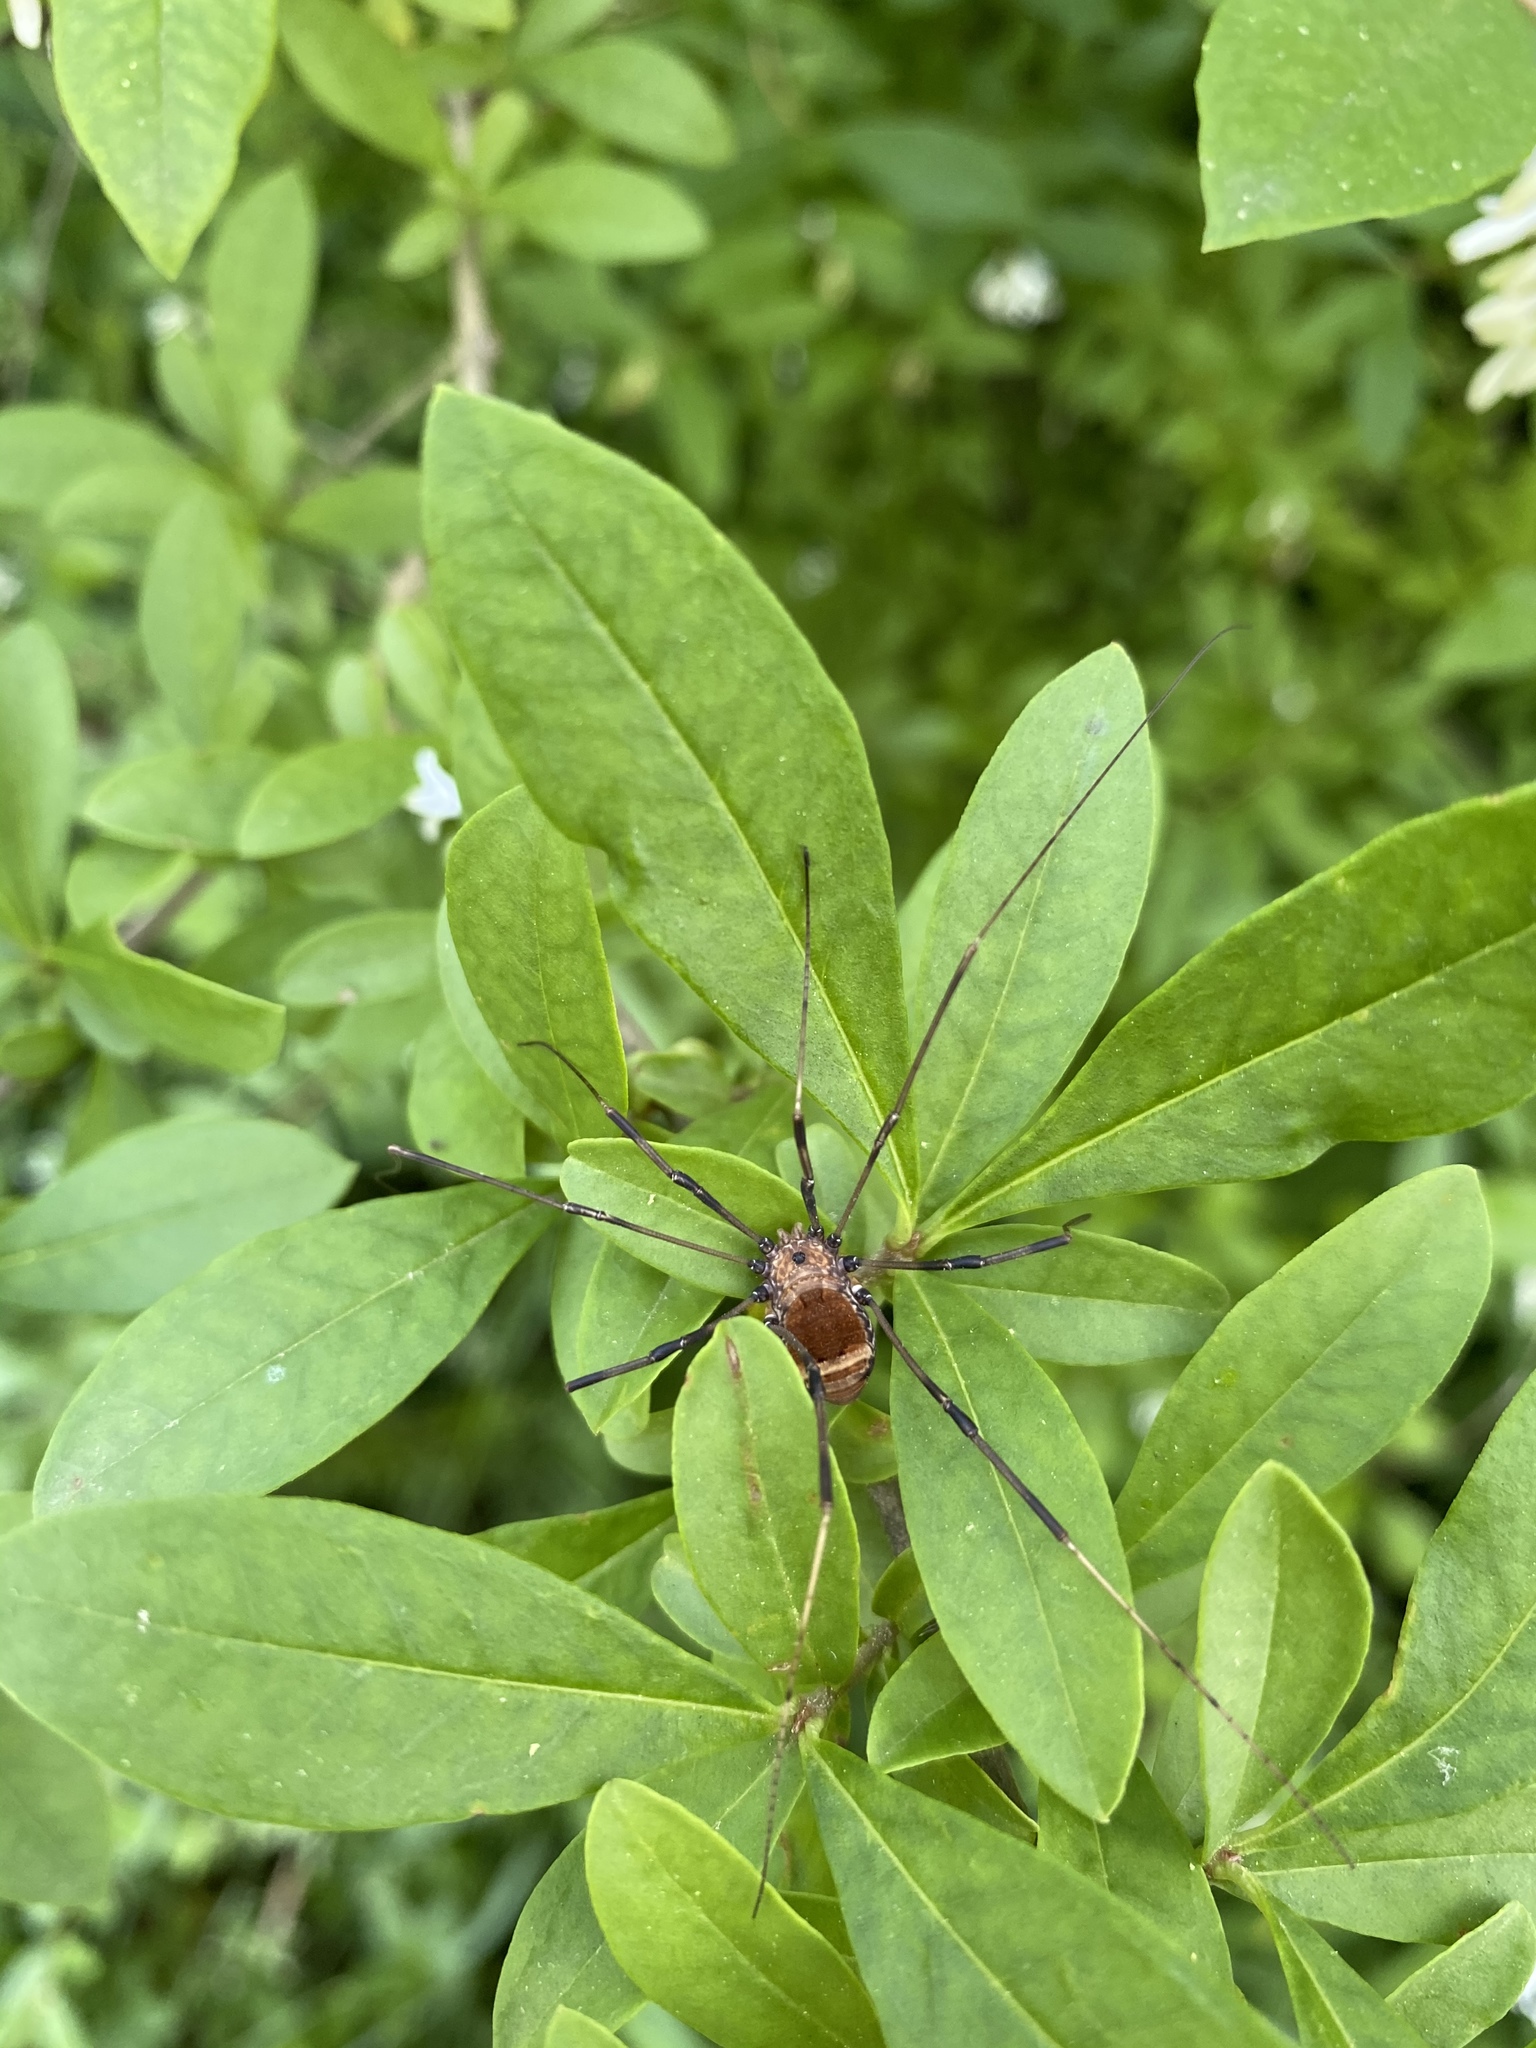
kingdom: Animalia
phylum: Arthropoda
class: Arachnida
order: Opiliones
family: Sclerosomatidae
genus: Leiobunum
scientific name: Leiobunum verrucosum
